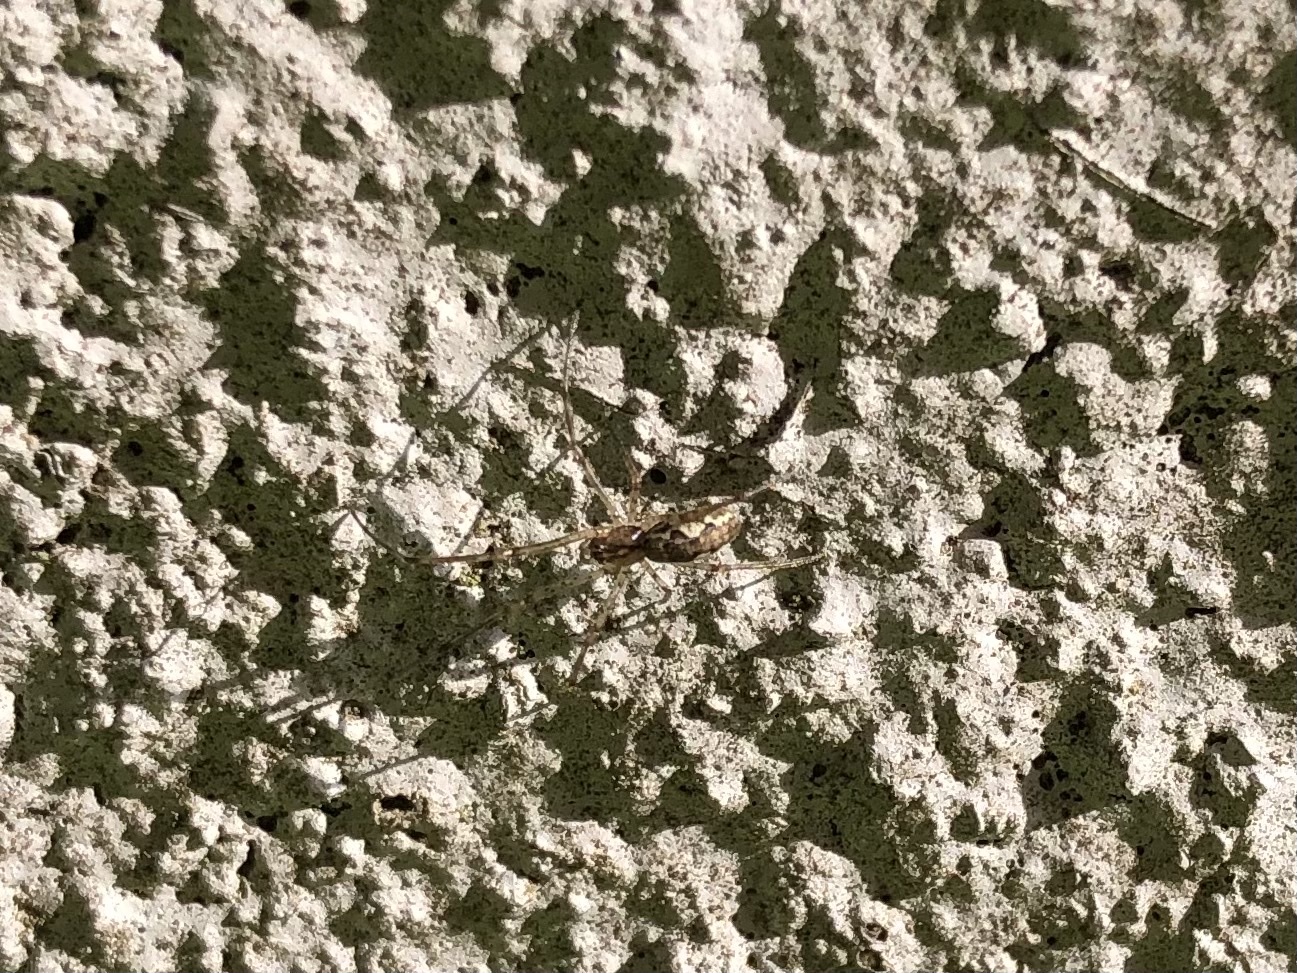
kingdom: Animalia
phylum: Arthropoda
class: Arachnida
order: Araneae
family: Tetragnathidae
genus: Tetragnatha
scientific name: Tetragnatha obtusa
